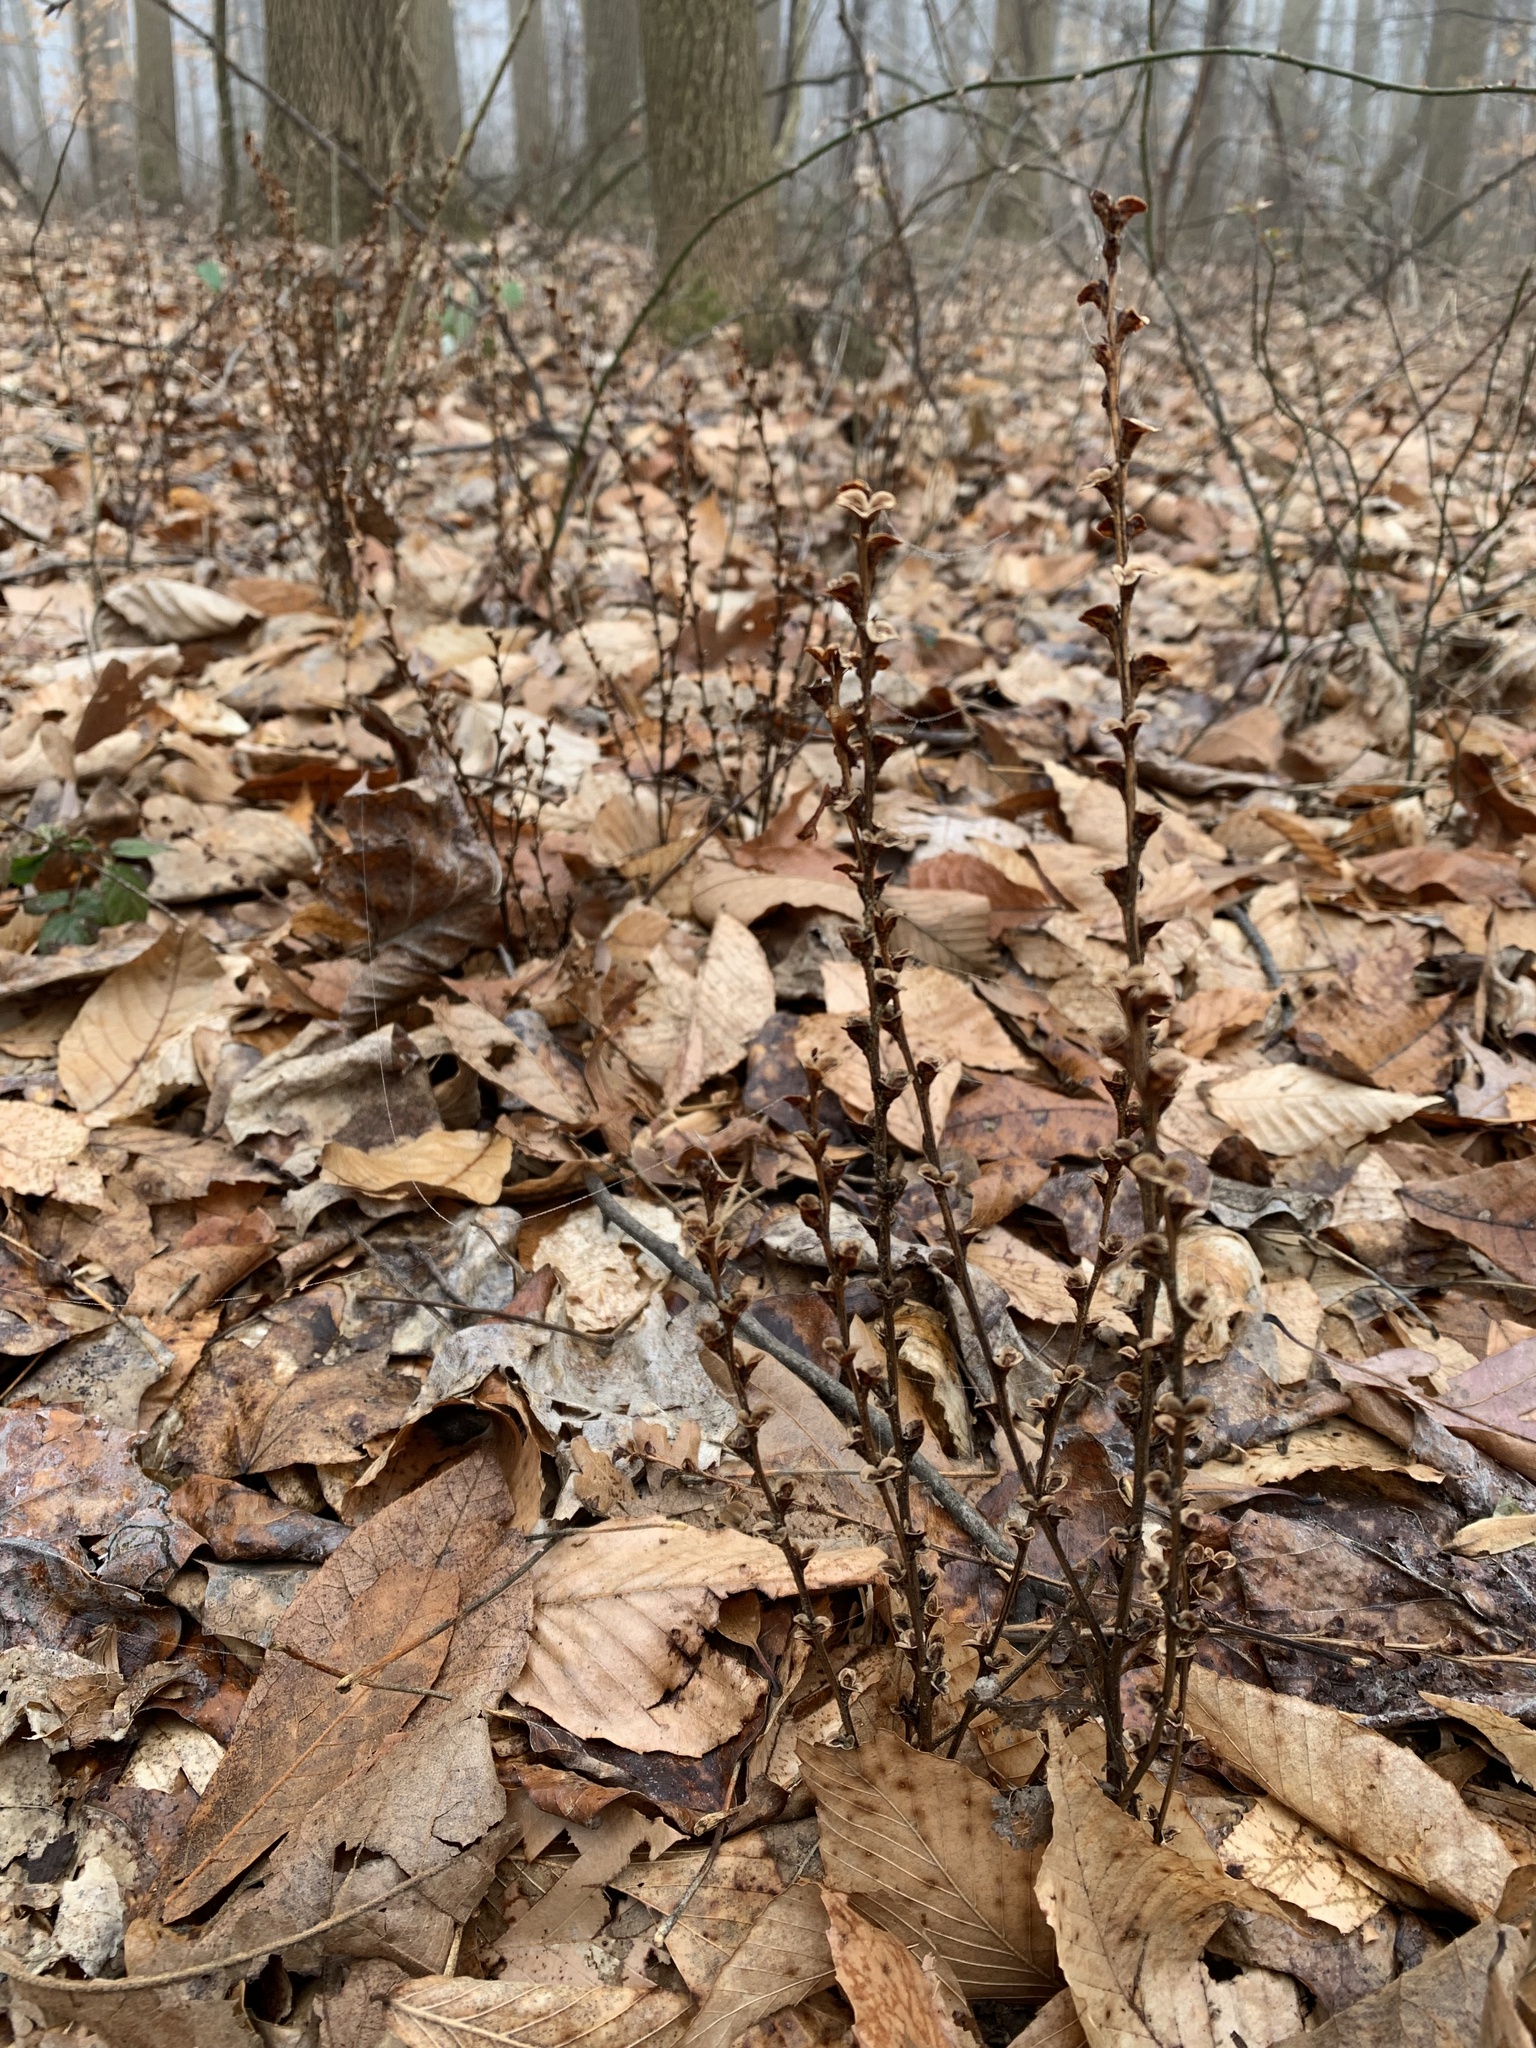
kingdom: Plantae
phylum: Tracheophyta
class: Magnoliopsida
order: Lamiales
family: Orobanchaceae
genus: Epifagus
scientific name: Epifagus virginiana
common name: Beechdrops
